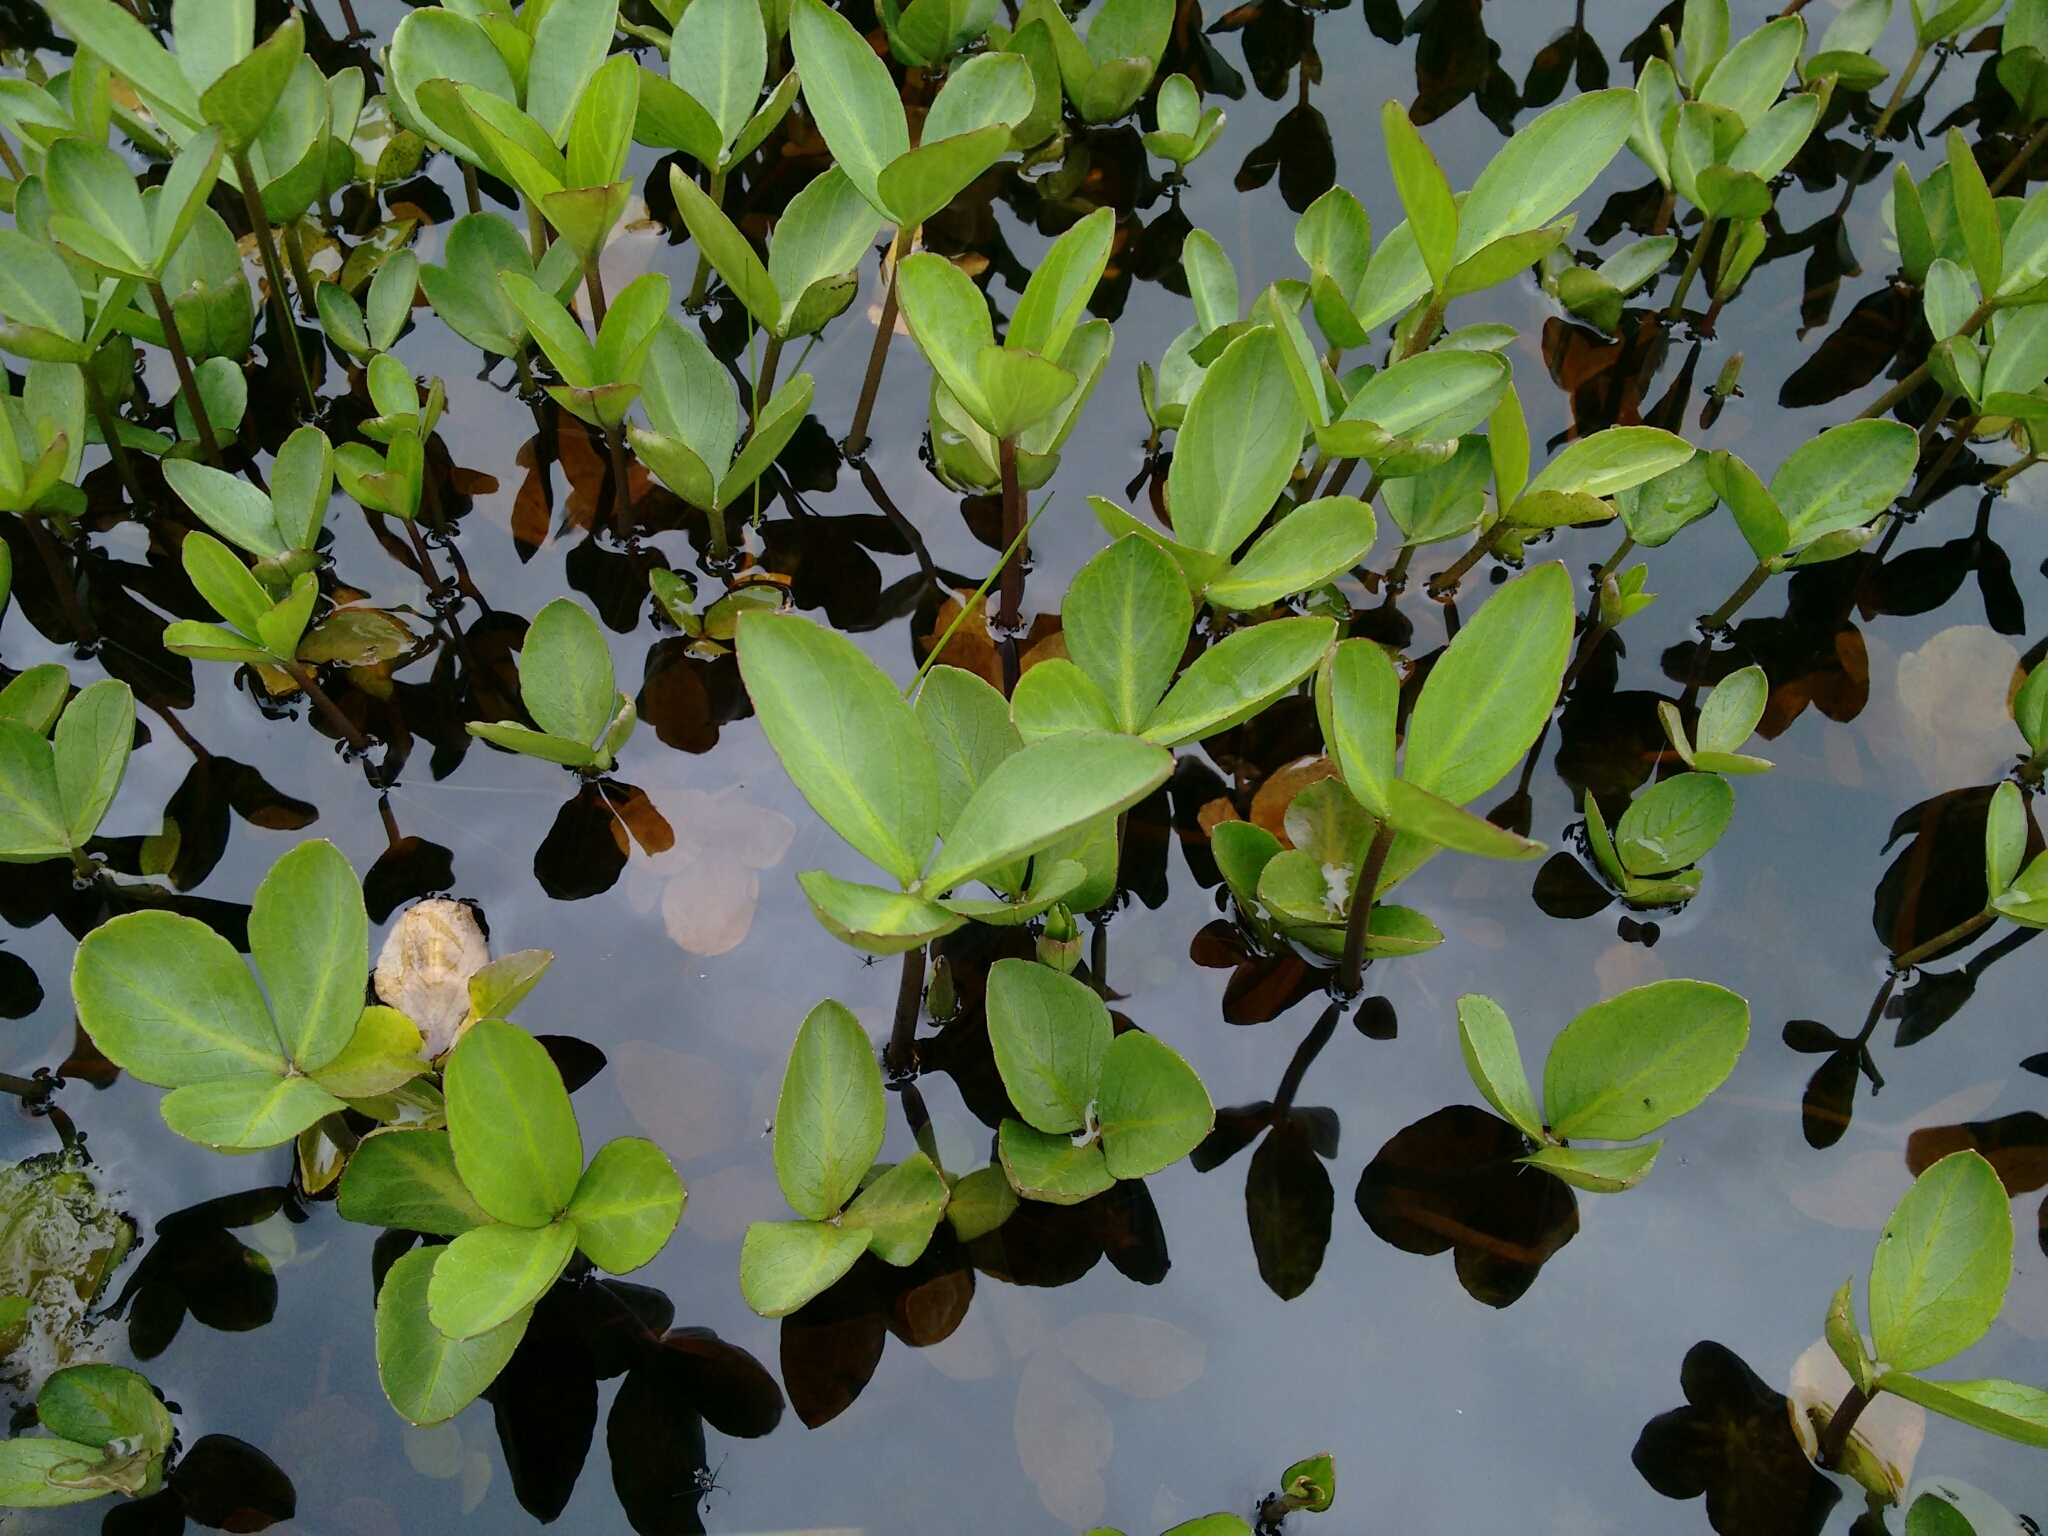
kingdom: Plantae
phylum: Tracheophyta
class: Magnoliopsida
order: Asterales
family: Menyanthaceae
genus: Menyanthes
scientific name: Menyanthes trifoliata
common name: Bogbean
